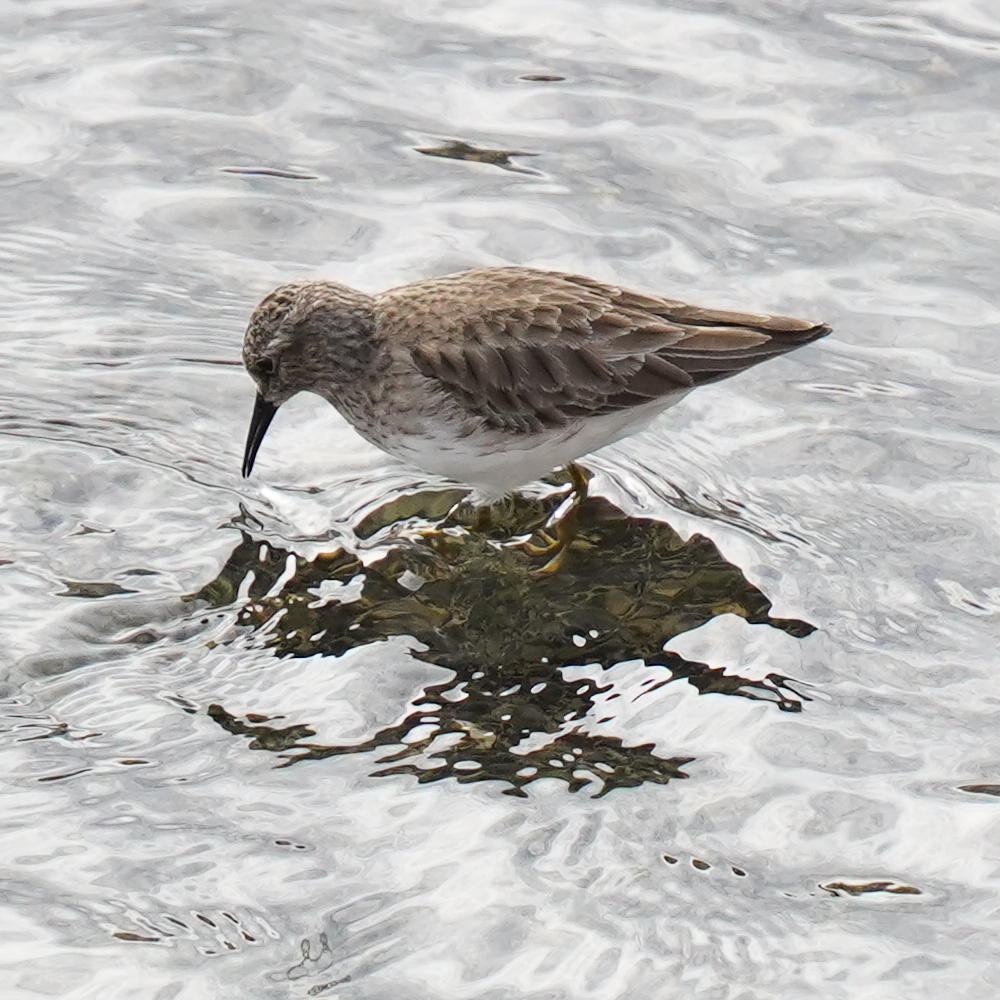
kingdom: Animalia
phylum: Chordata
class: Aves
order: Charadriiformes
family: Scolopacidae
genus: Calidris
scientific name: Calidris minutilla
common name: Least sandpiper
